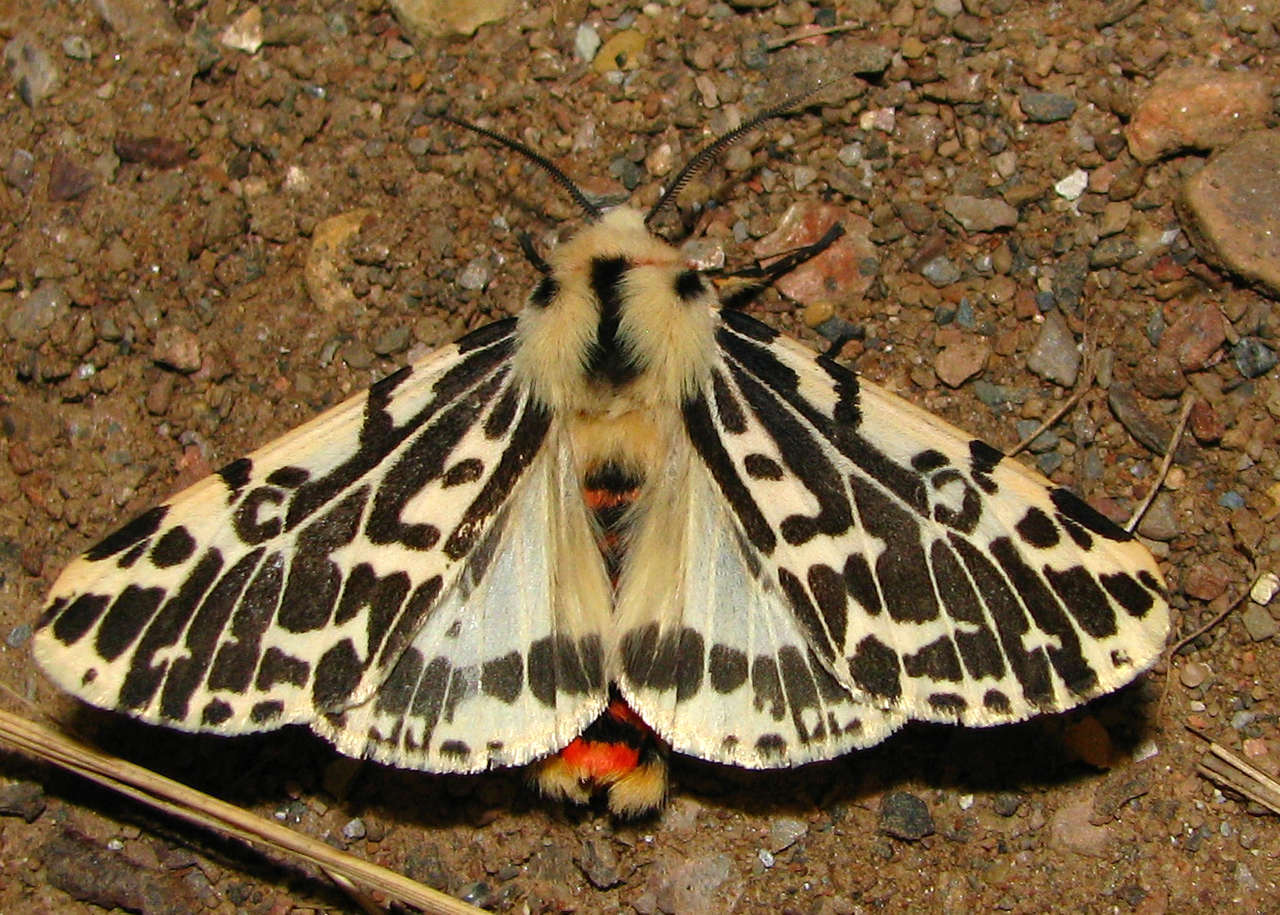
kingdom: Animalia
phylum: Arthropoda
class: Insecta
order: Lepidoptera
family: Erebidae
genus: Ardices
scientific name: Ardices glatignyi
